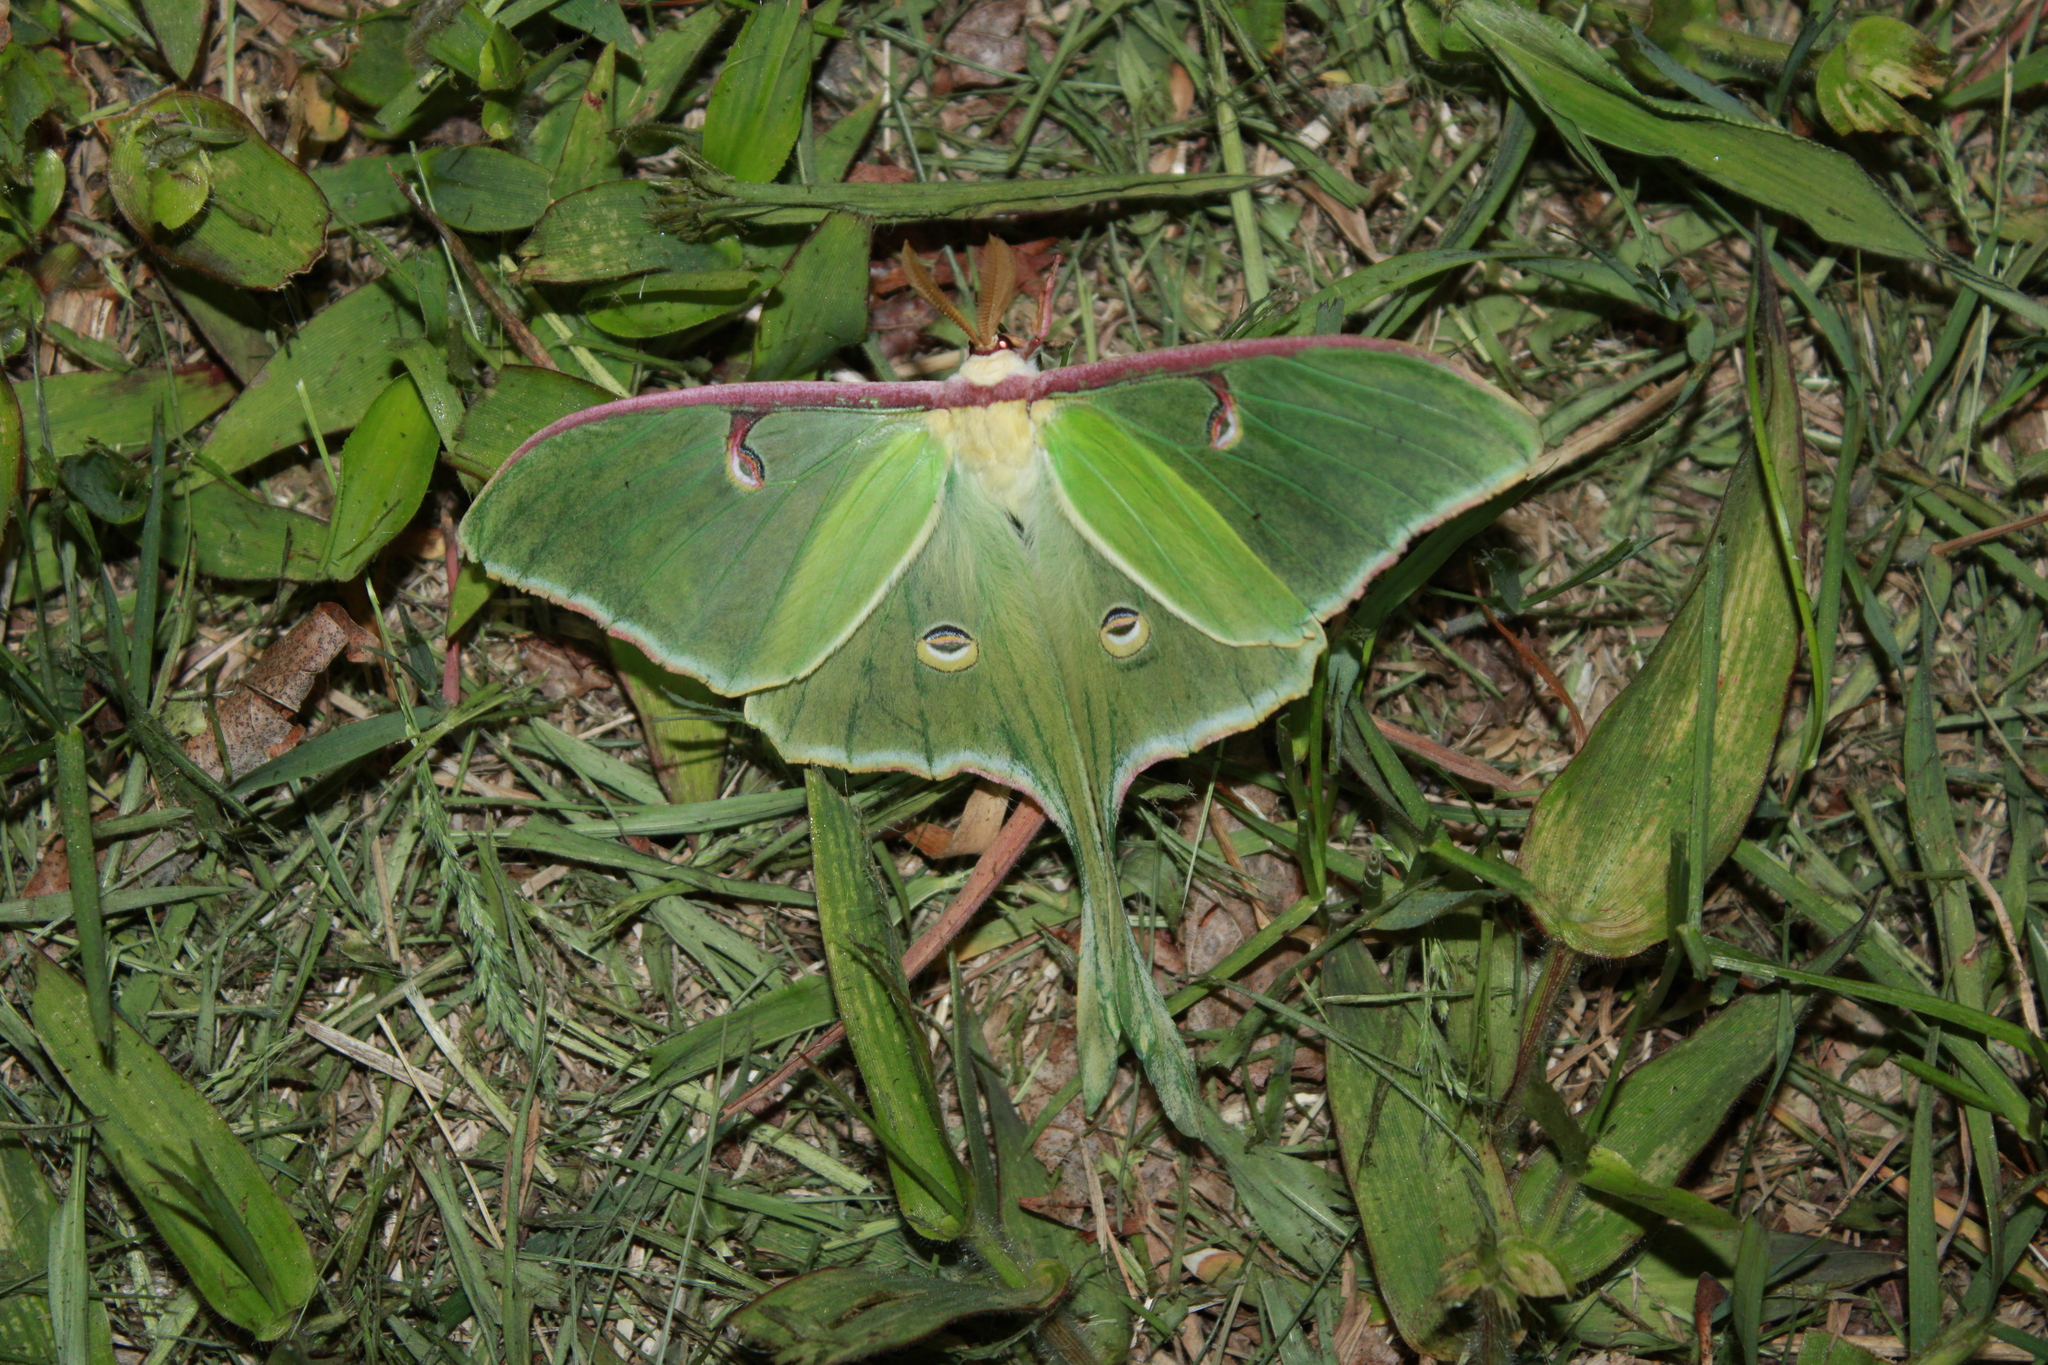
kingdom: Animalia
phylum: Arthropoda
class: Insecta
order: Lepidoptera
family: Saturniidae
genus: Actias
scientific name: Actias luna
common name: Luna moth
